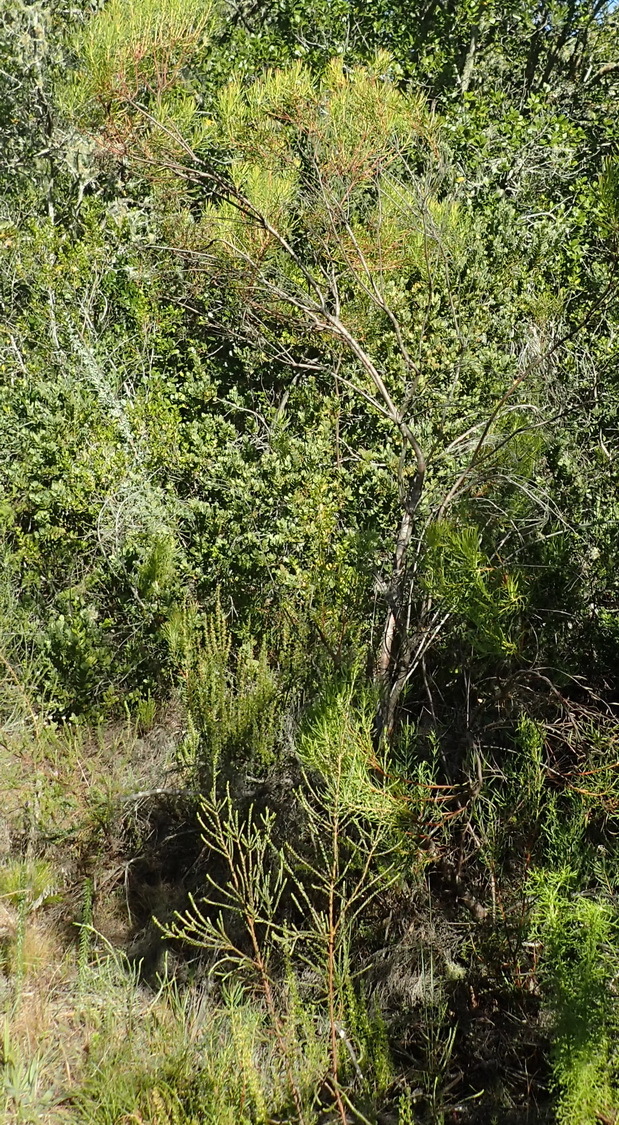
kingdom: Plantae
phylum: Tracheophyta
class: Magnoliopsida
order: Proteales
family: Proteaceae
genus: Leucadendron
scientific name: Leucadendron eucalyptifolium
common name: Gum-leaved conebush
